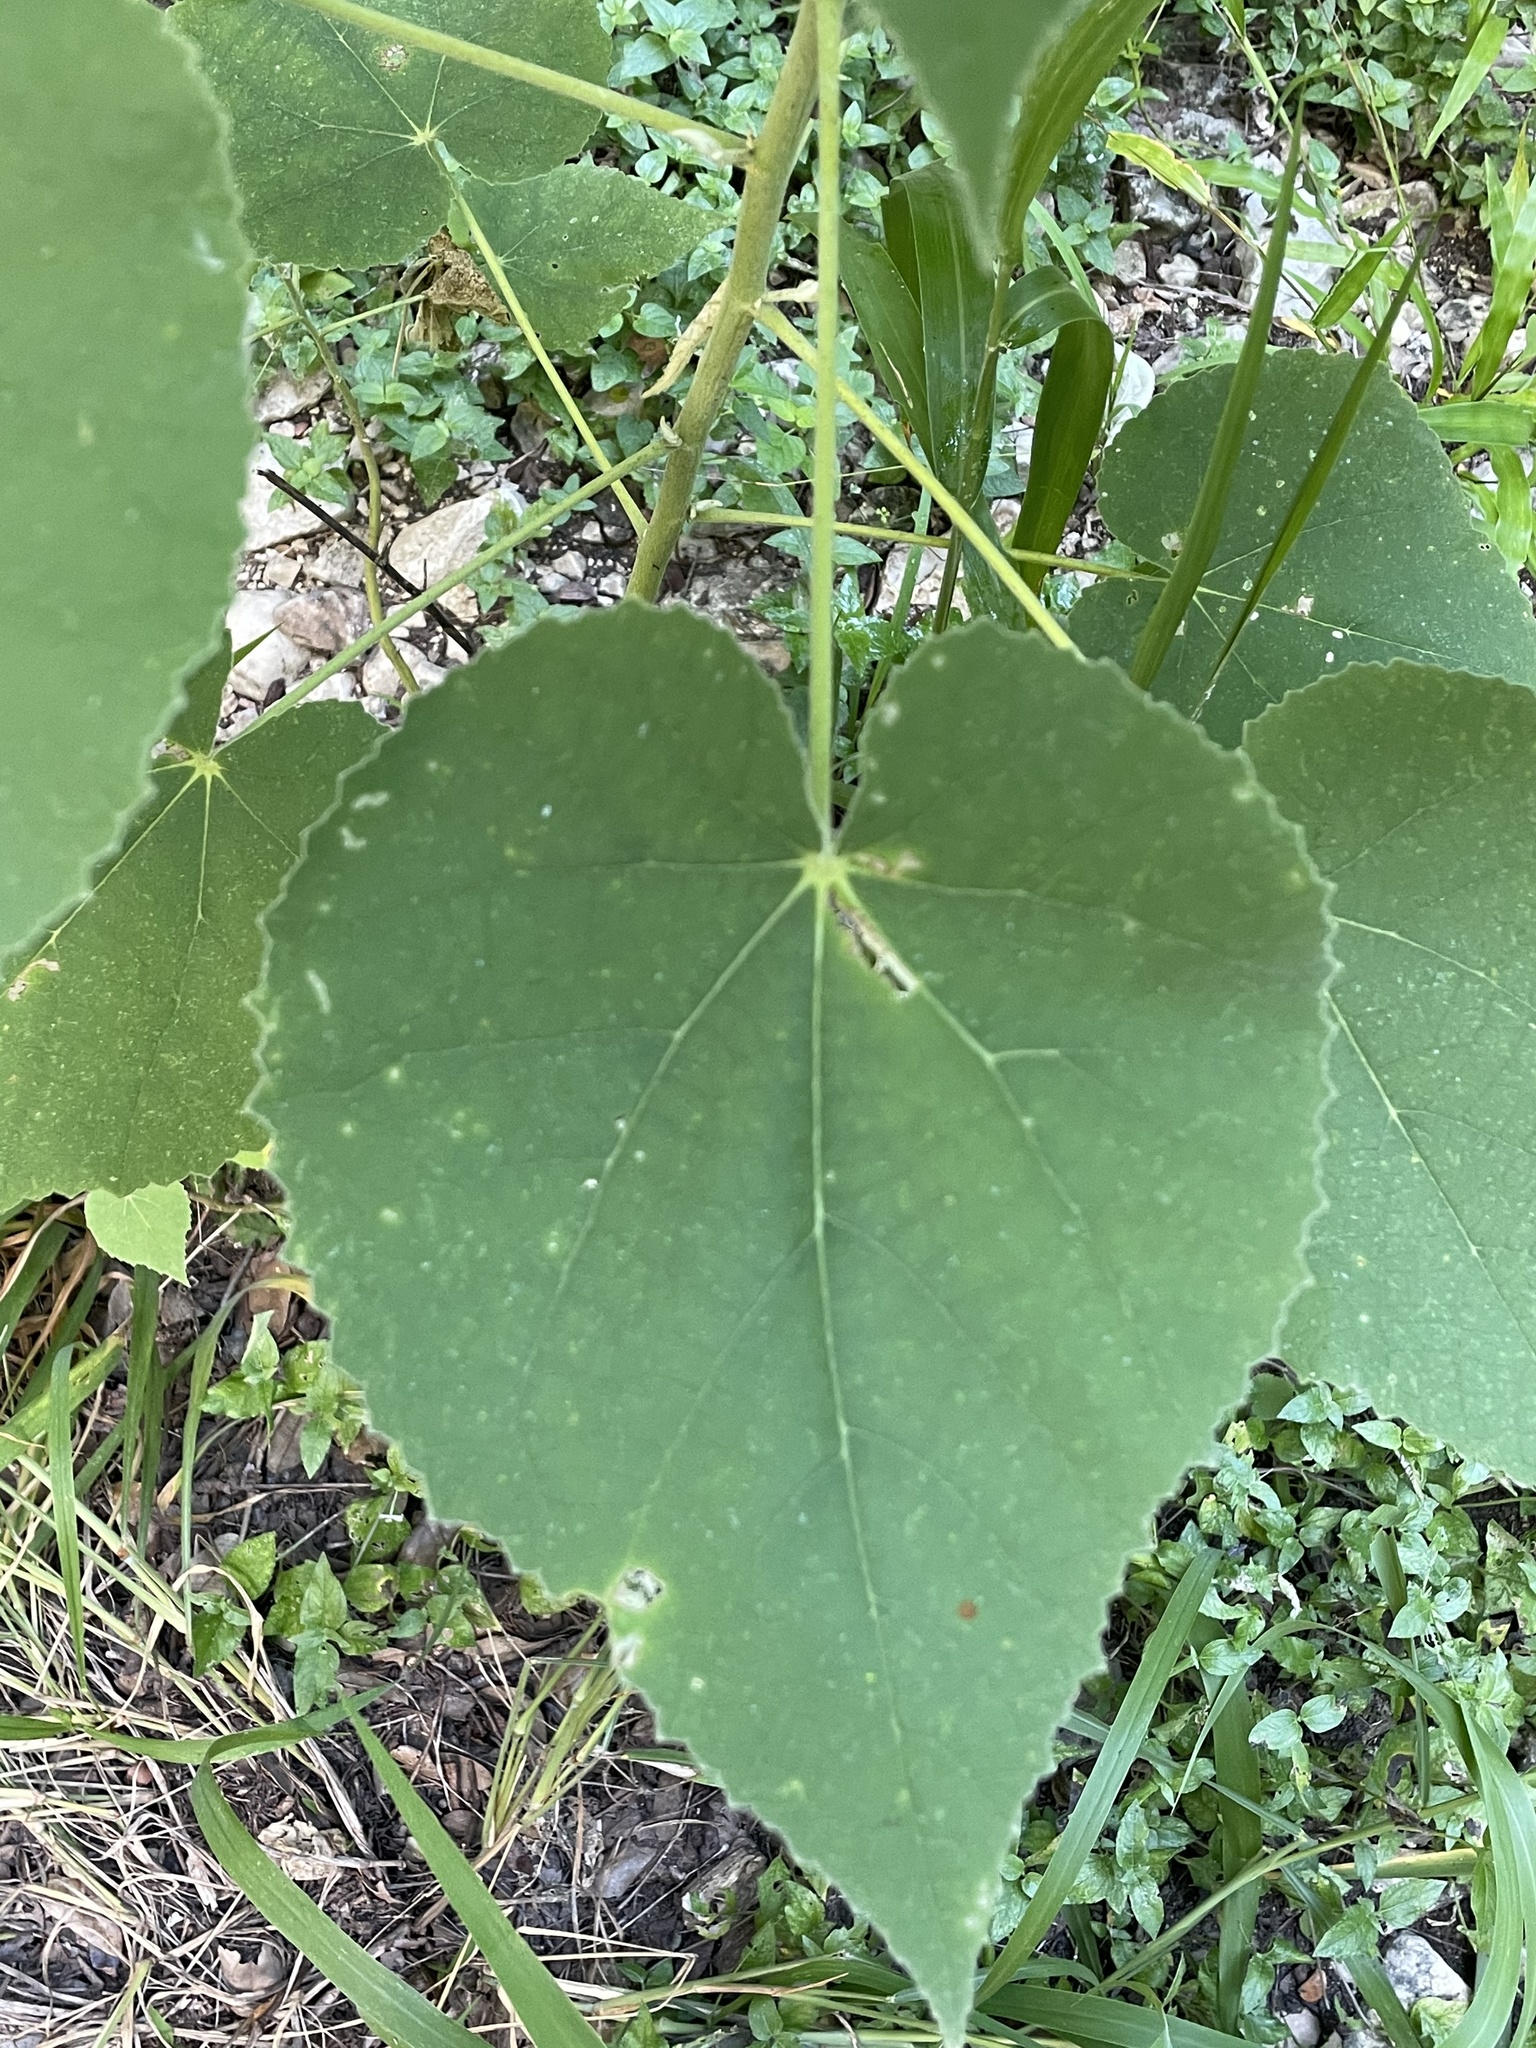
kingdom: Plantae
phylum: Tracheophyta
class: Magnoliopsida
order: Malvales
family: Malvaceae
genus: Allowissadula
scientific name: Allowissadula holosericea
